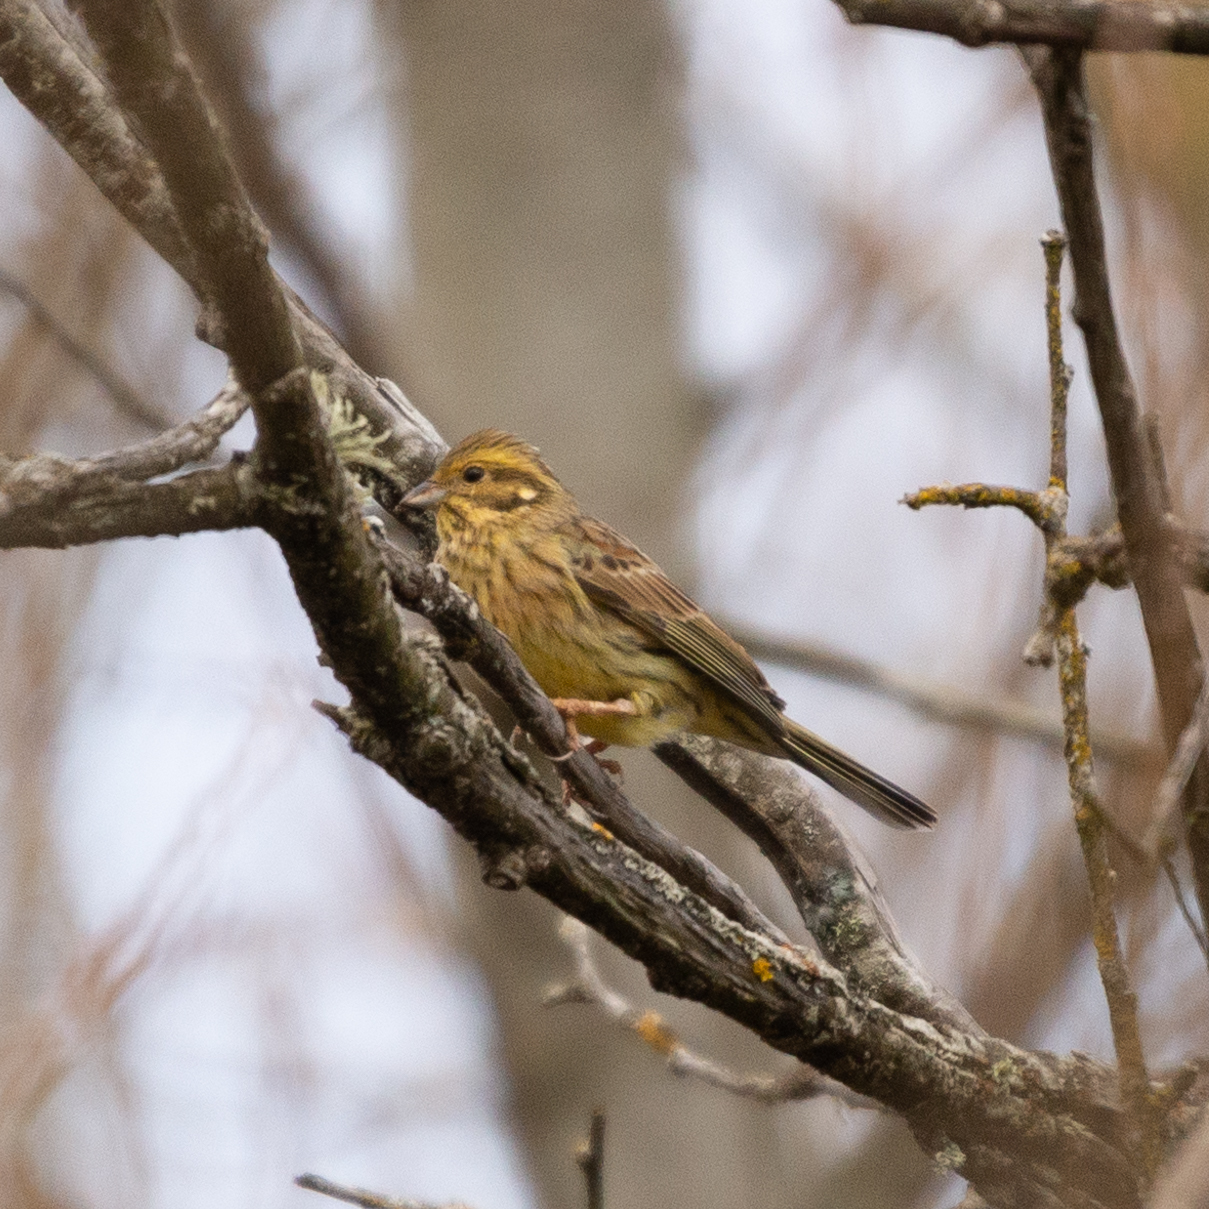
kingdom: Animalia
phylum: Chordata
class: Aves
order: Passeriformes
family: Emberizidae
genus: Emberiza
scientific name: Emberiza citrinella
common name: Yellowhammer
